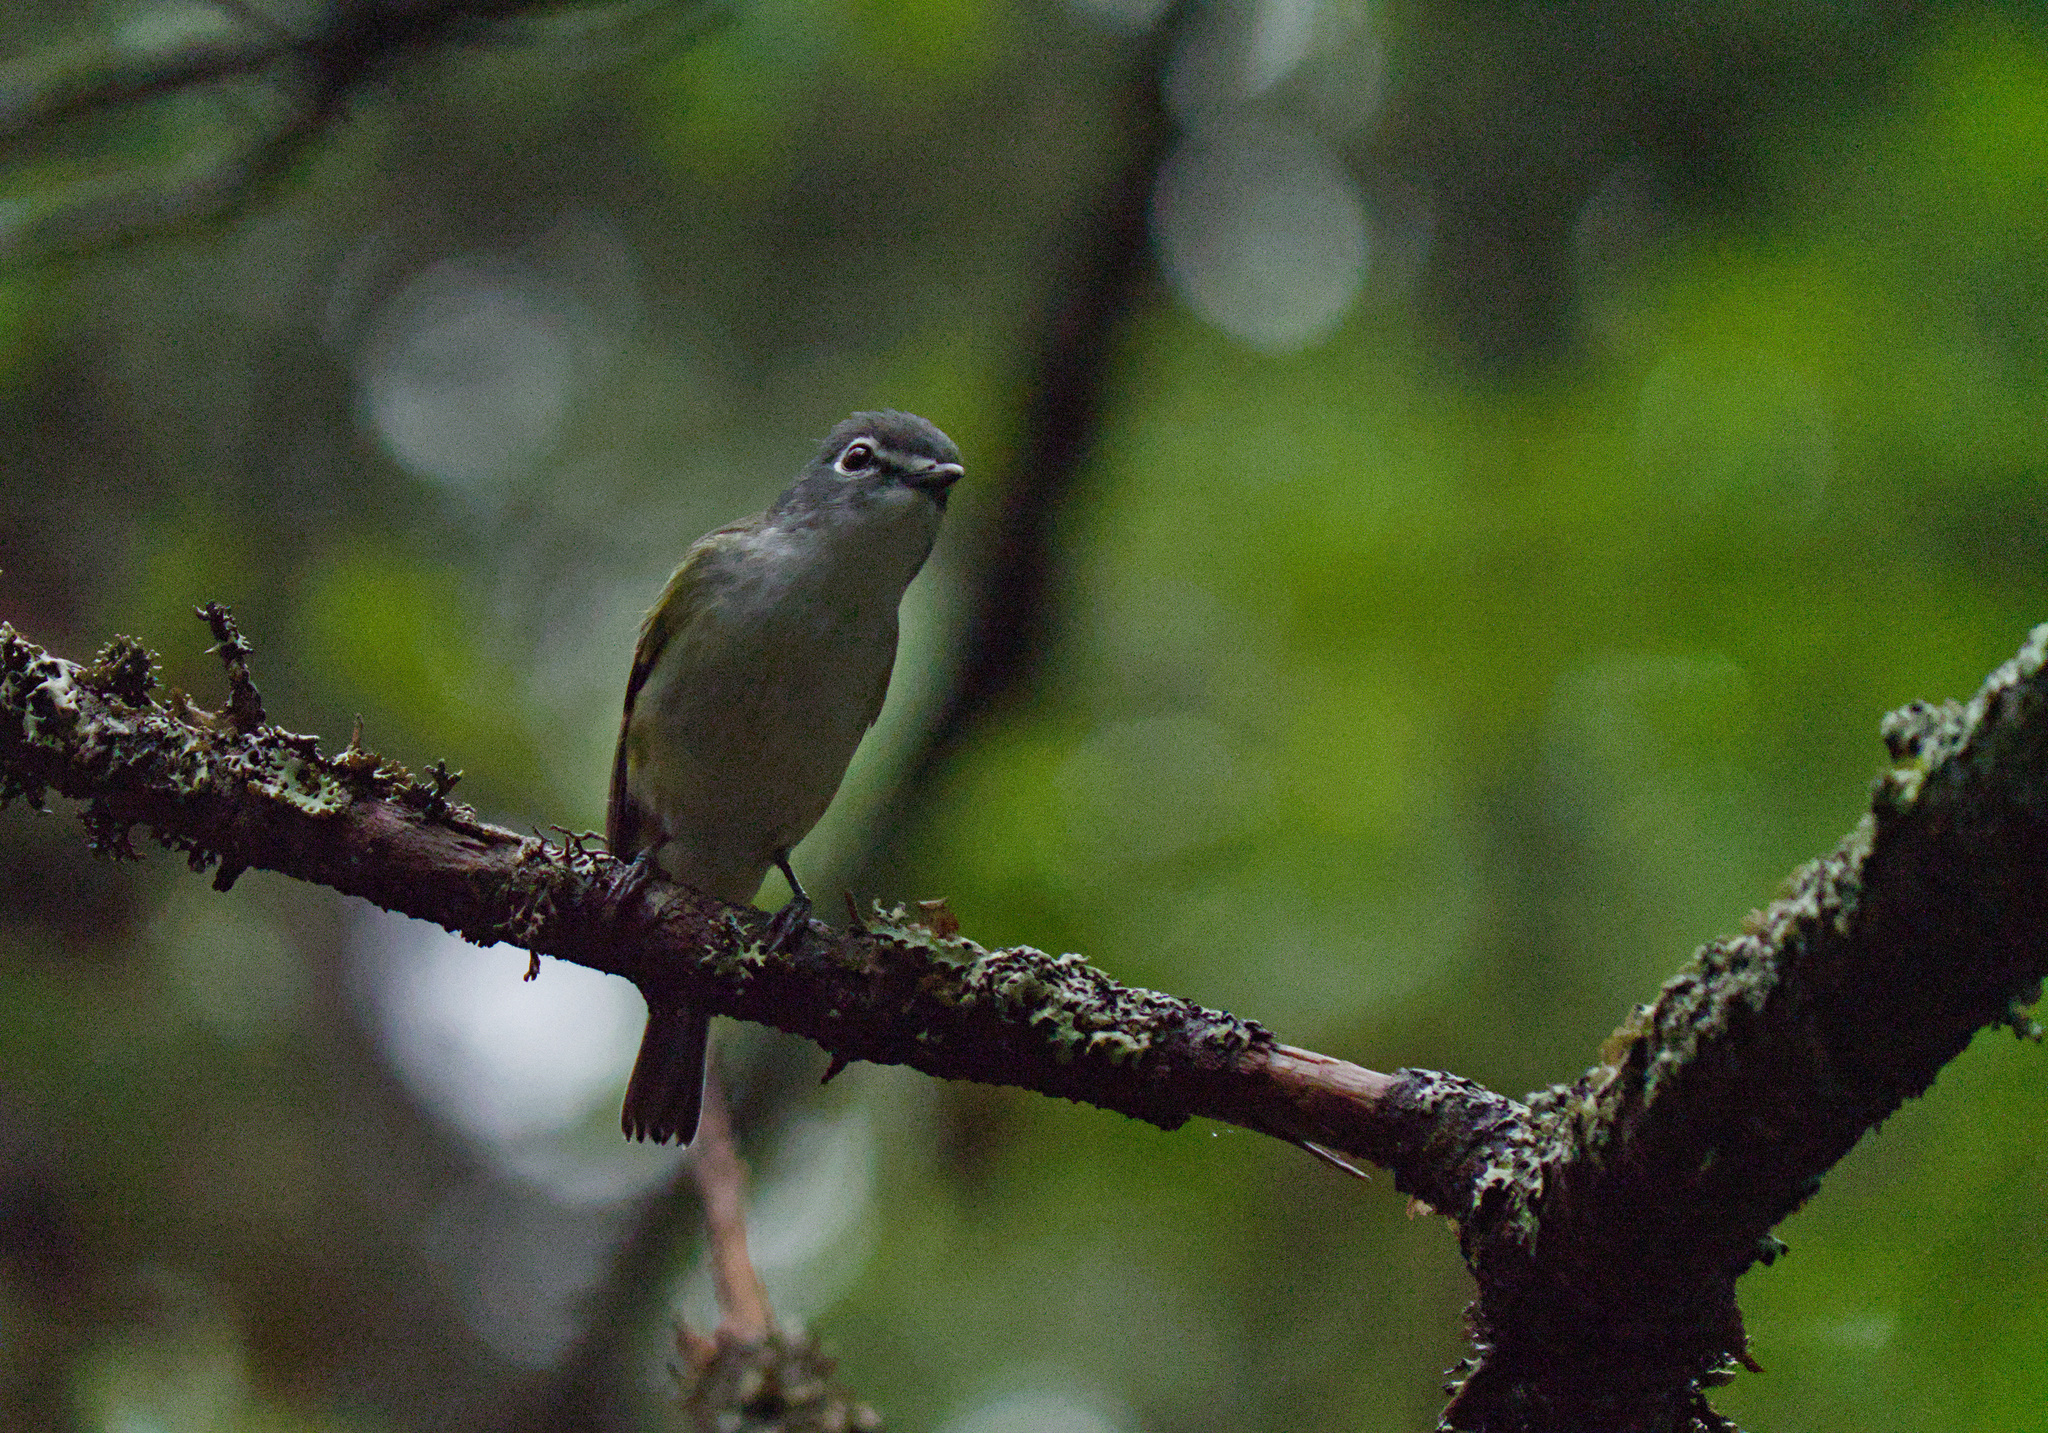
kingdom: Animalia
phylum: Chordata
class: Aves
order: Passeriformes
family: Vireonidae
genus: Vireo
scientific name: Vireo solitarius
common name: Blue-headed vireo
